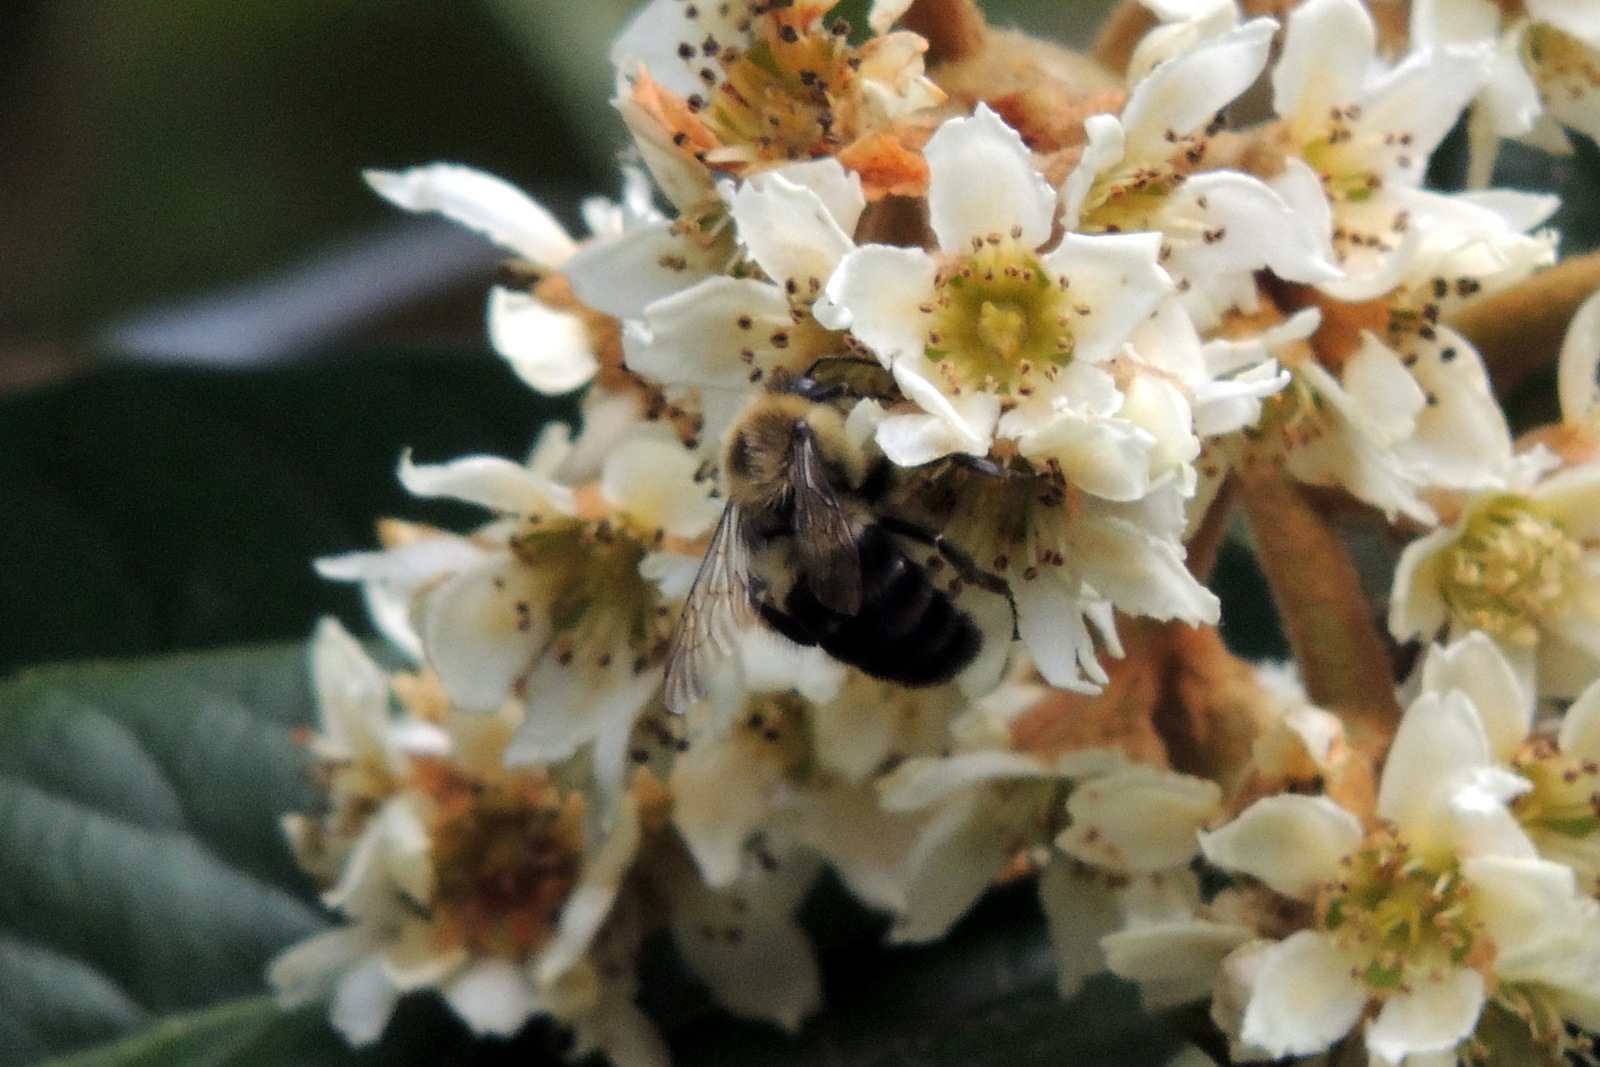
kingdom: Animalia
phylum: Arthropoda
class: Insecta
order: Hymenoptera
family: Apidae
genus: Bombus
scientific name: Bombus impatiens
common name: Common eastern bumble bee
